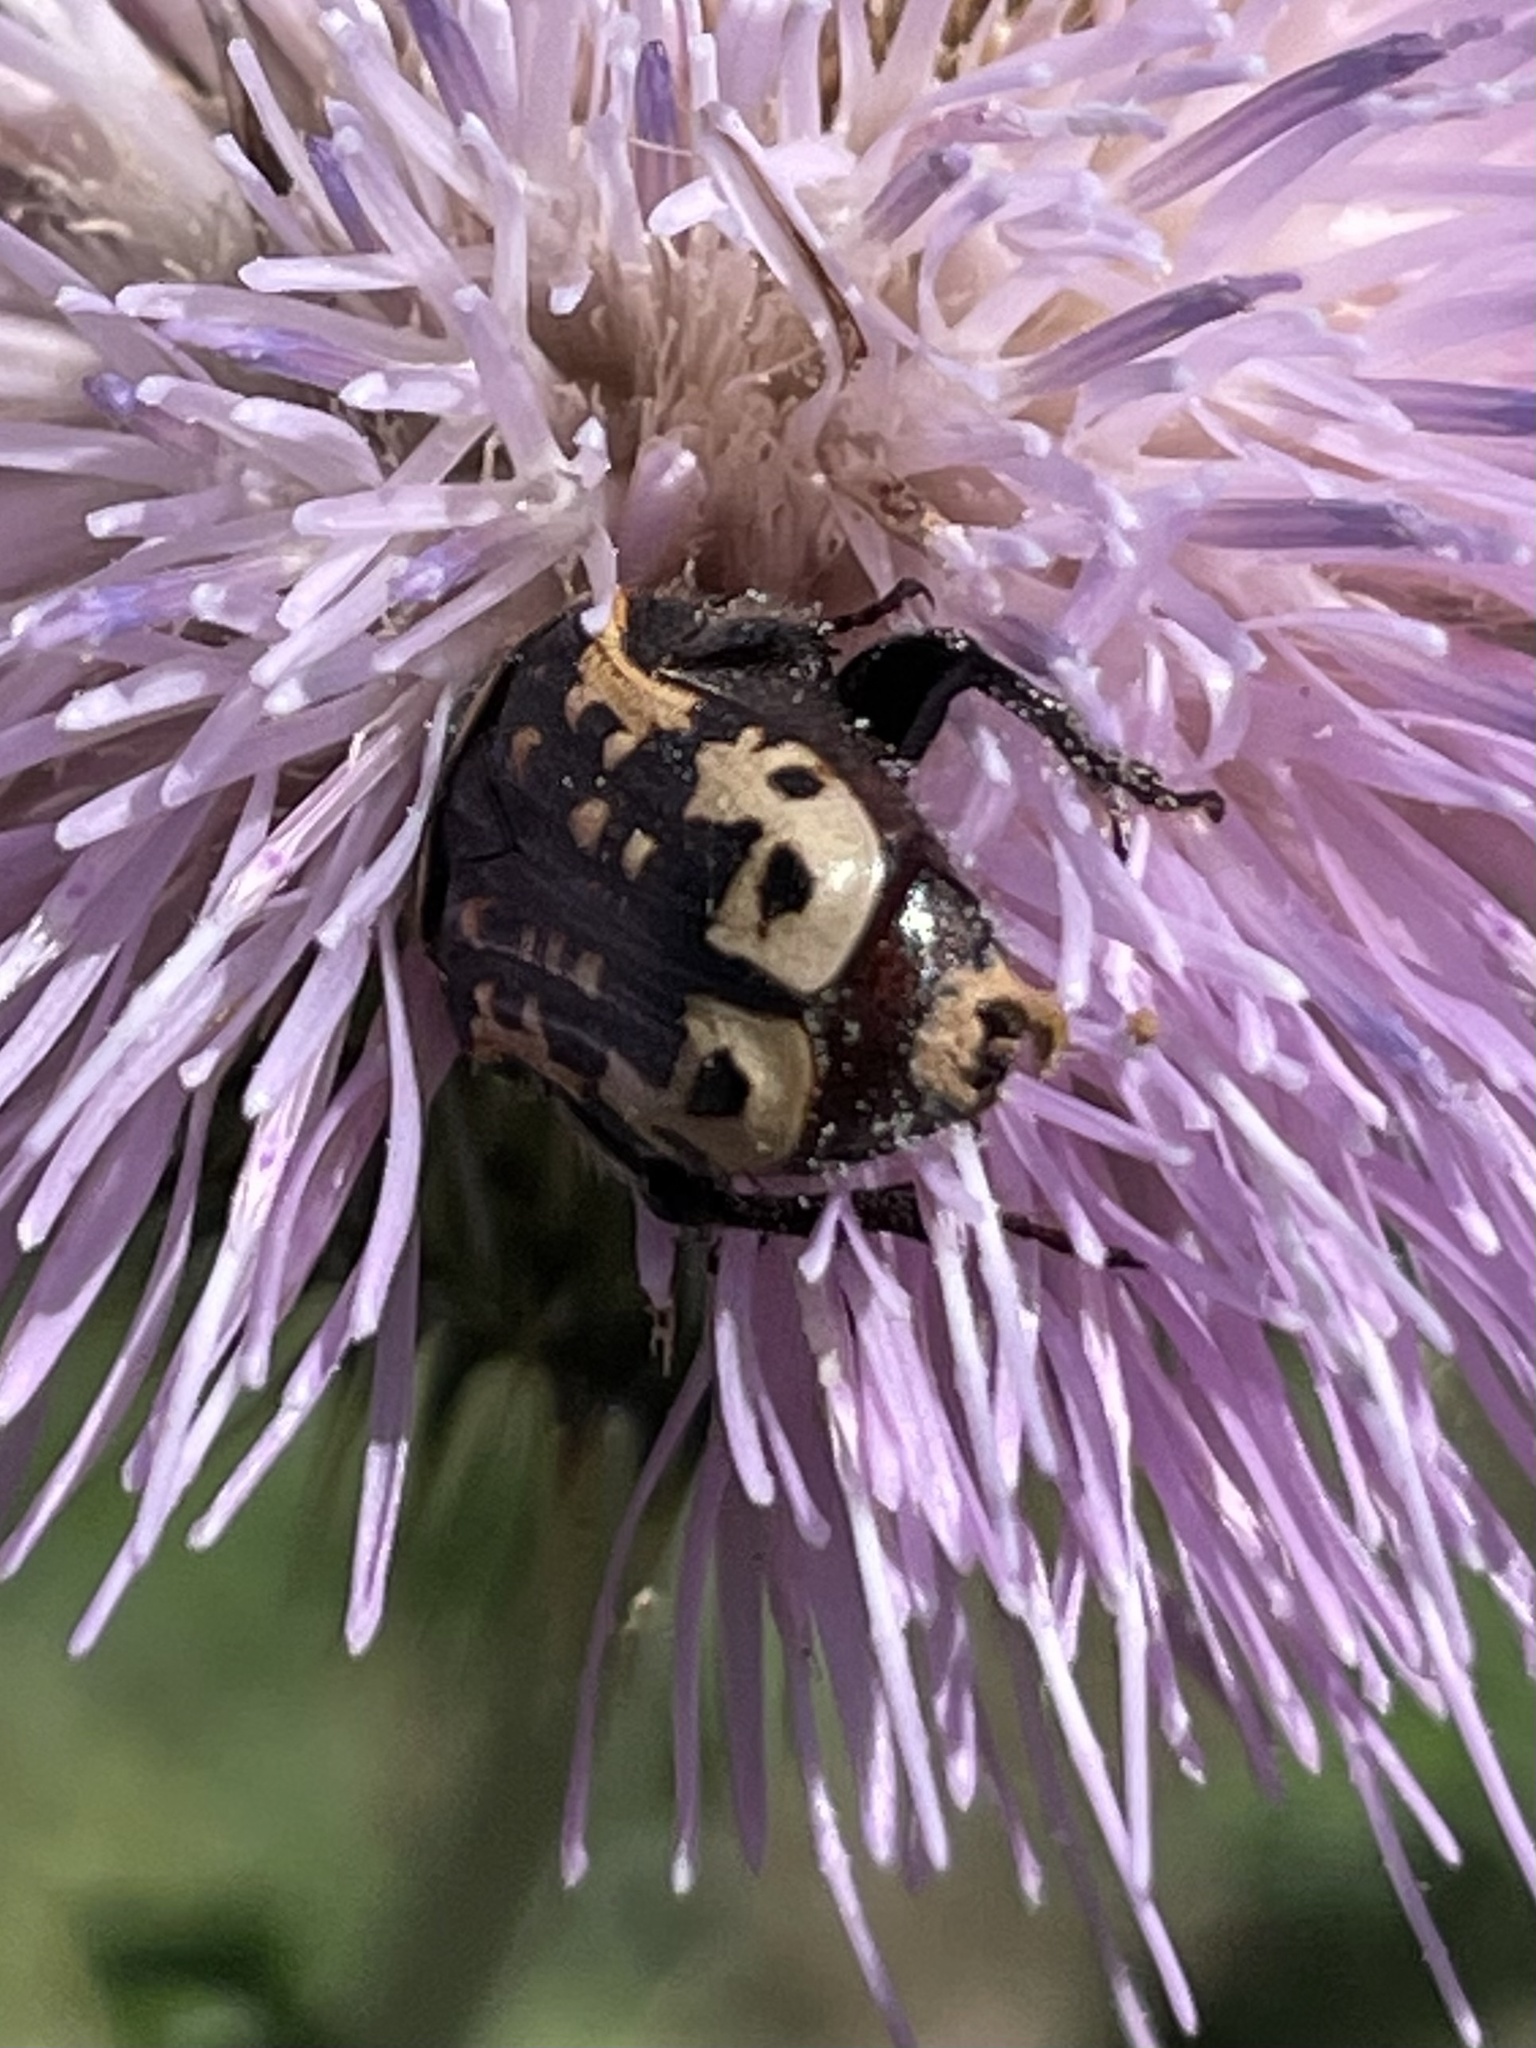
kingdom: Animalia
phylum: Arthropoda
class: Insecta
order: Coleoptera
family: Scarabaeidae
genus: Euphoria
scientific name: Euphoria kernii
